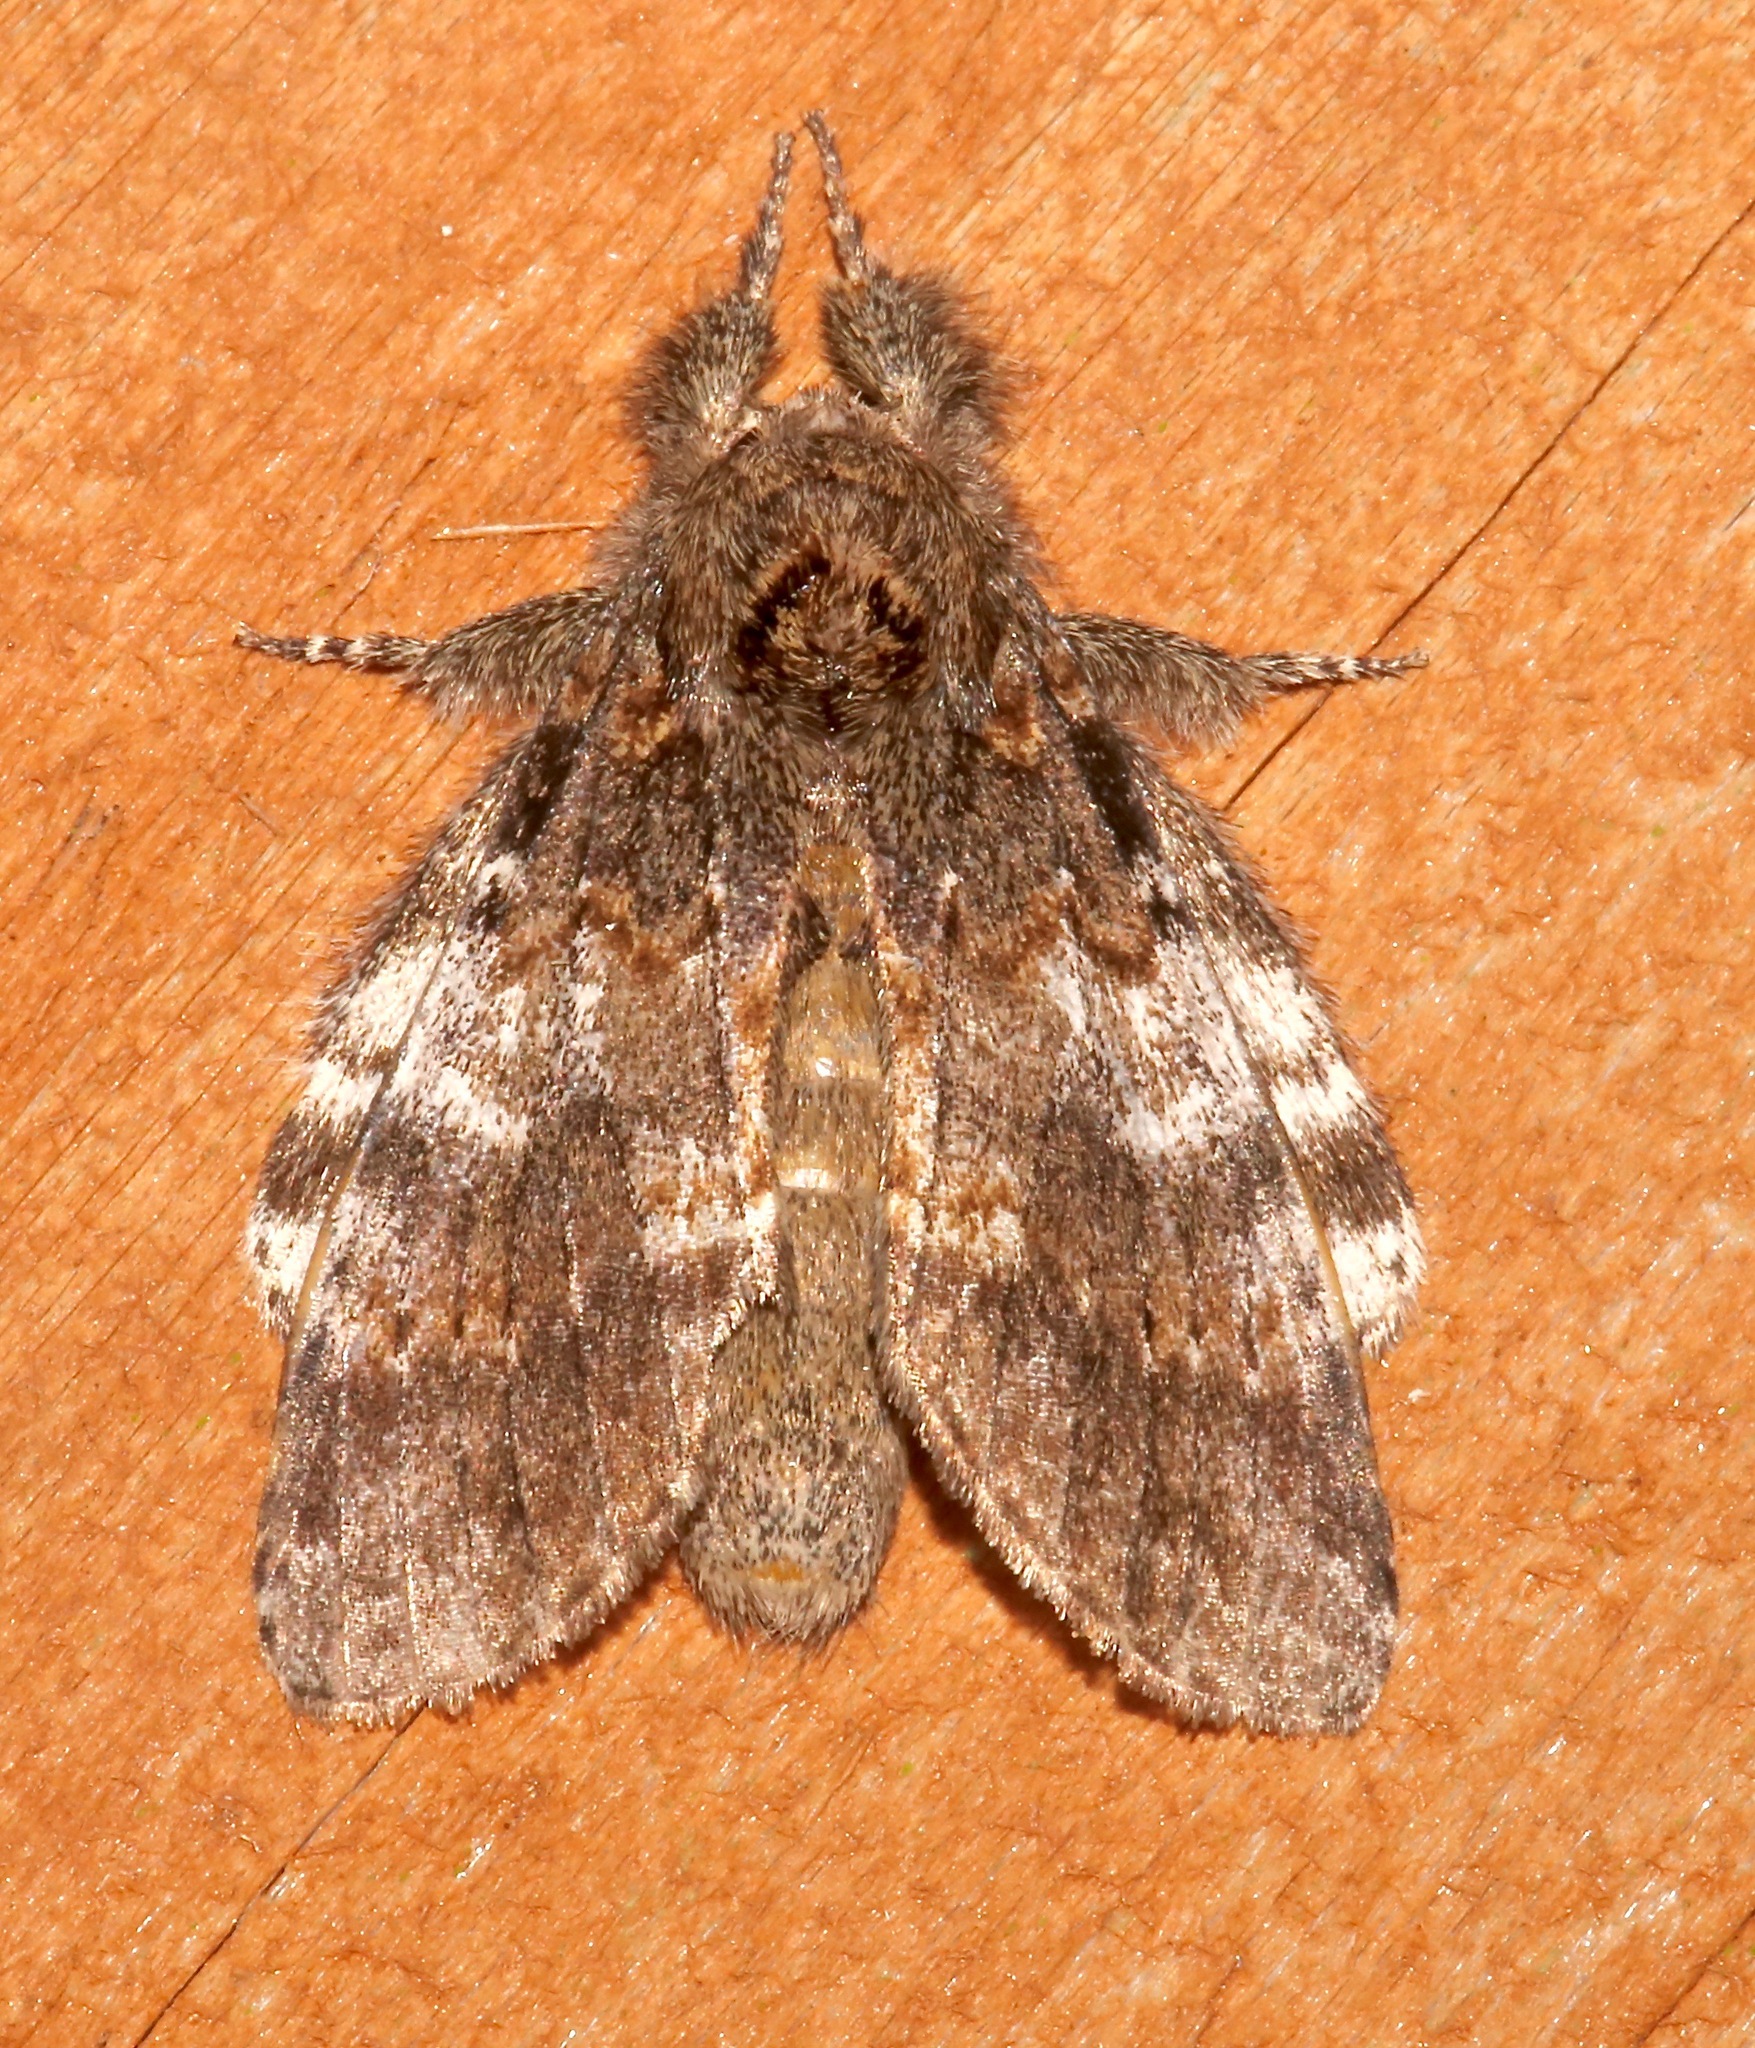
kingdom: Animalia
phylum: Arthropoda
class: Insecta
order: Lepidoptera
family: Notodontidae
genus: Peridea
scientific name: Peridea angulosa
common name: Angulose prominent
